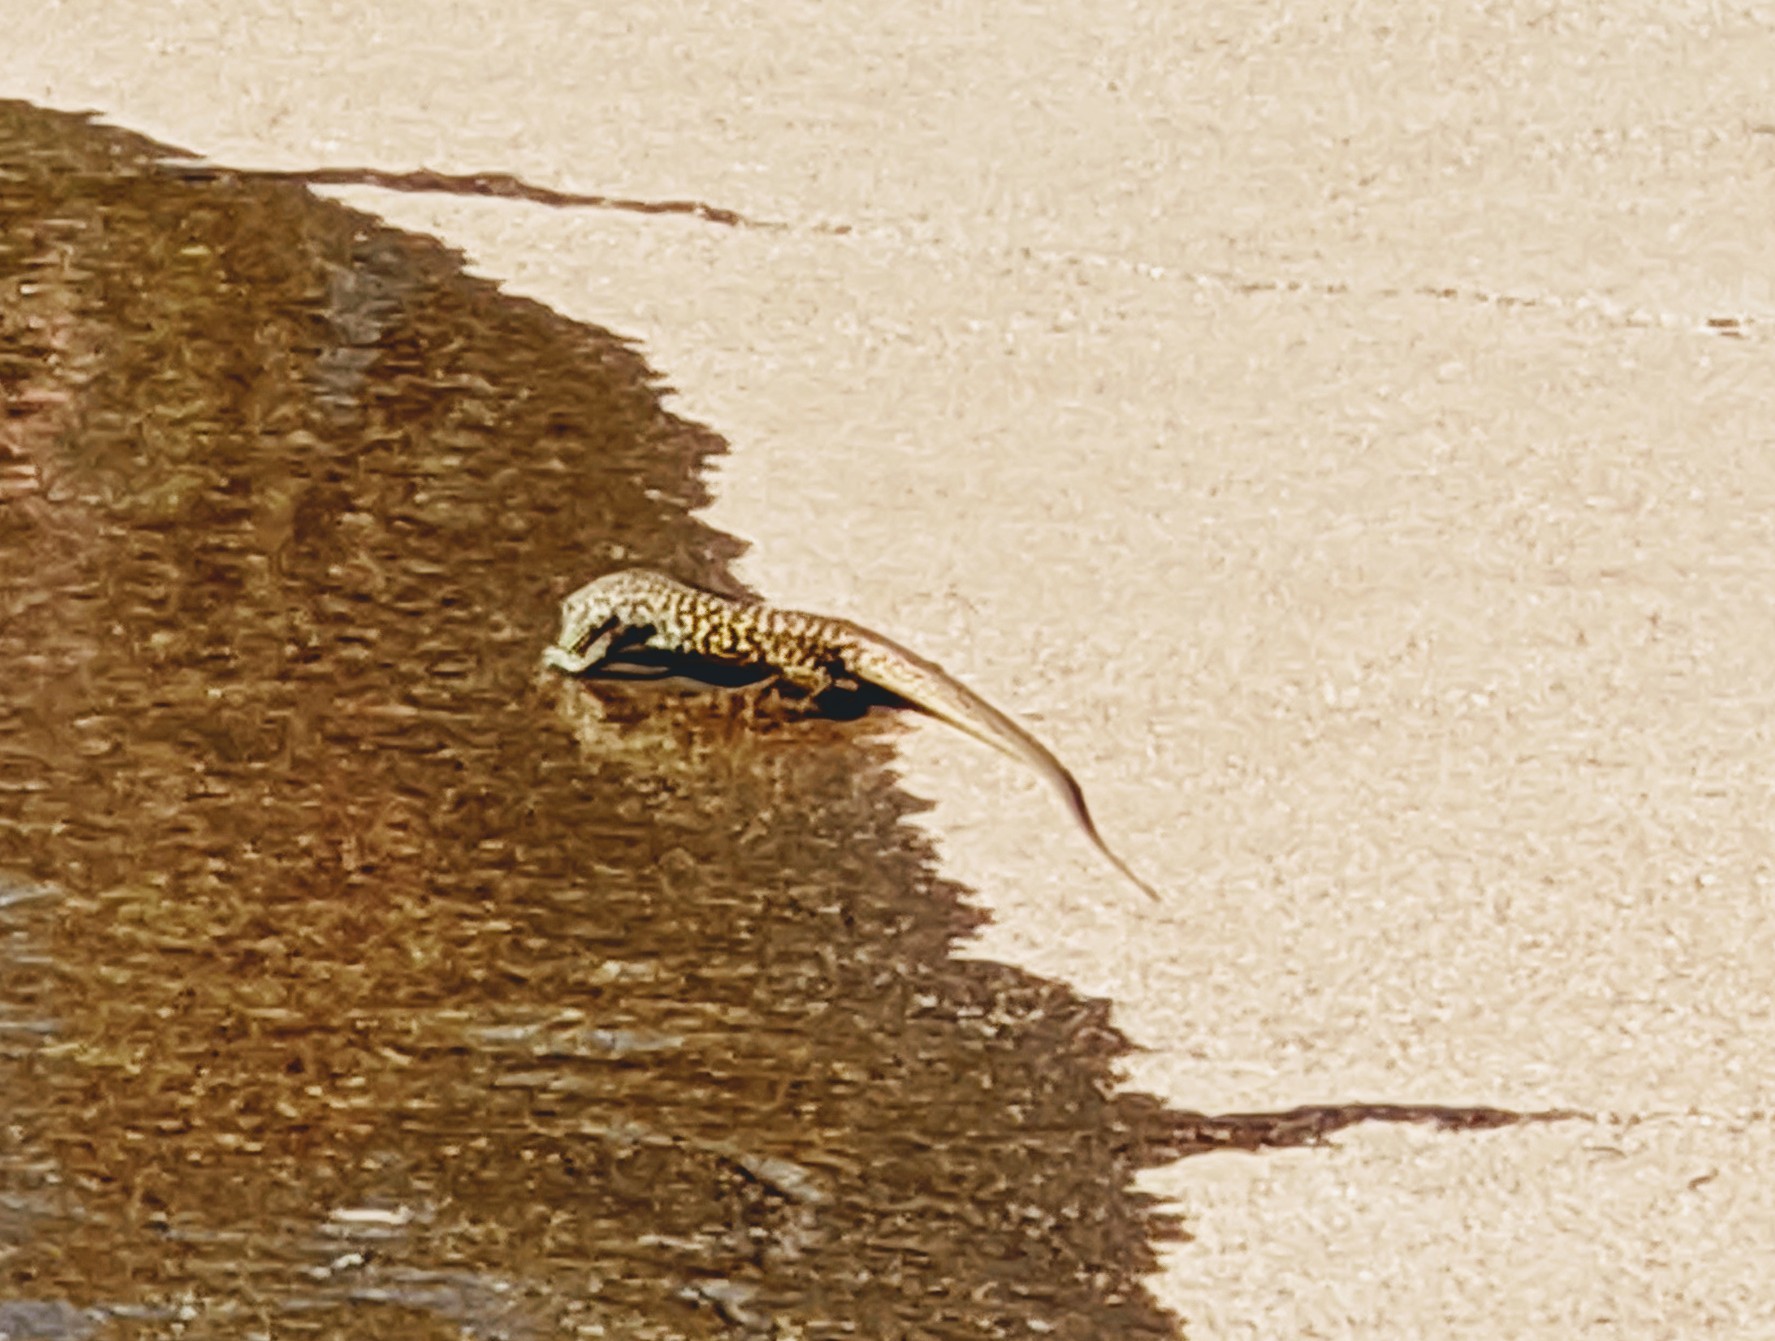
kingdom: Animalia
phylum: Chordata
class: Squamata
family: Teiidae
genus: Aspidoscelis
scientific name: Aspidoscelis marmoratus
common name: Eastern marbled whiptail [reticuloriens]
